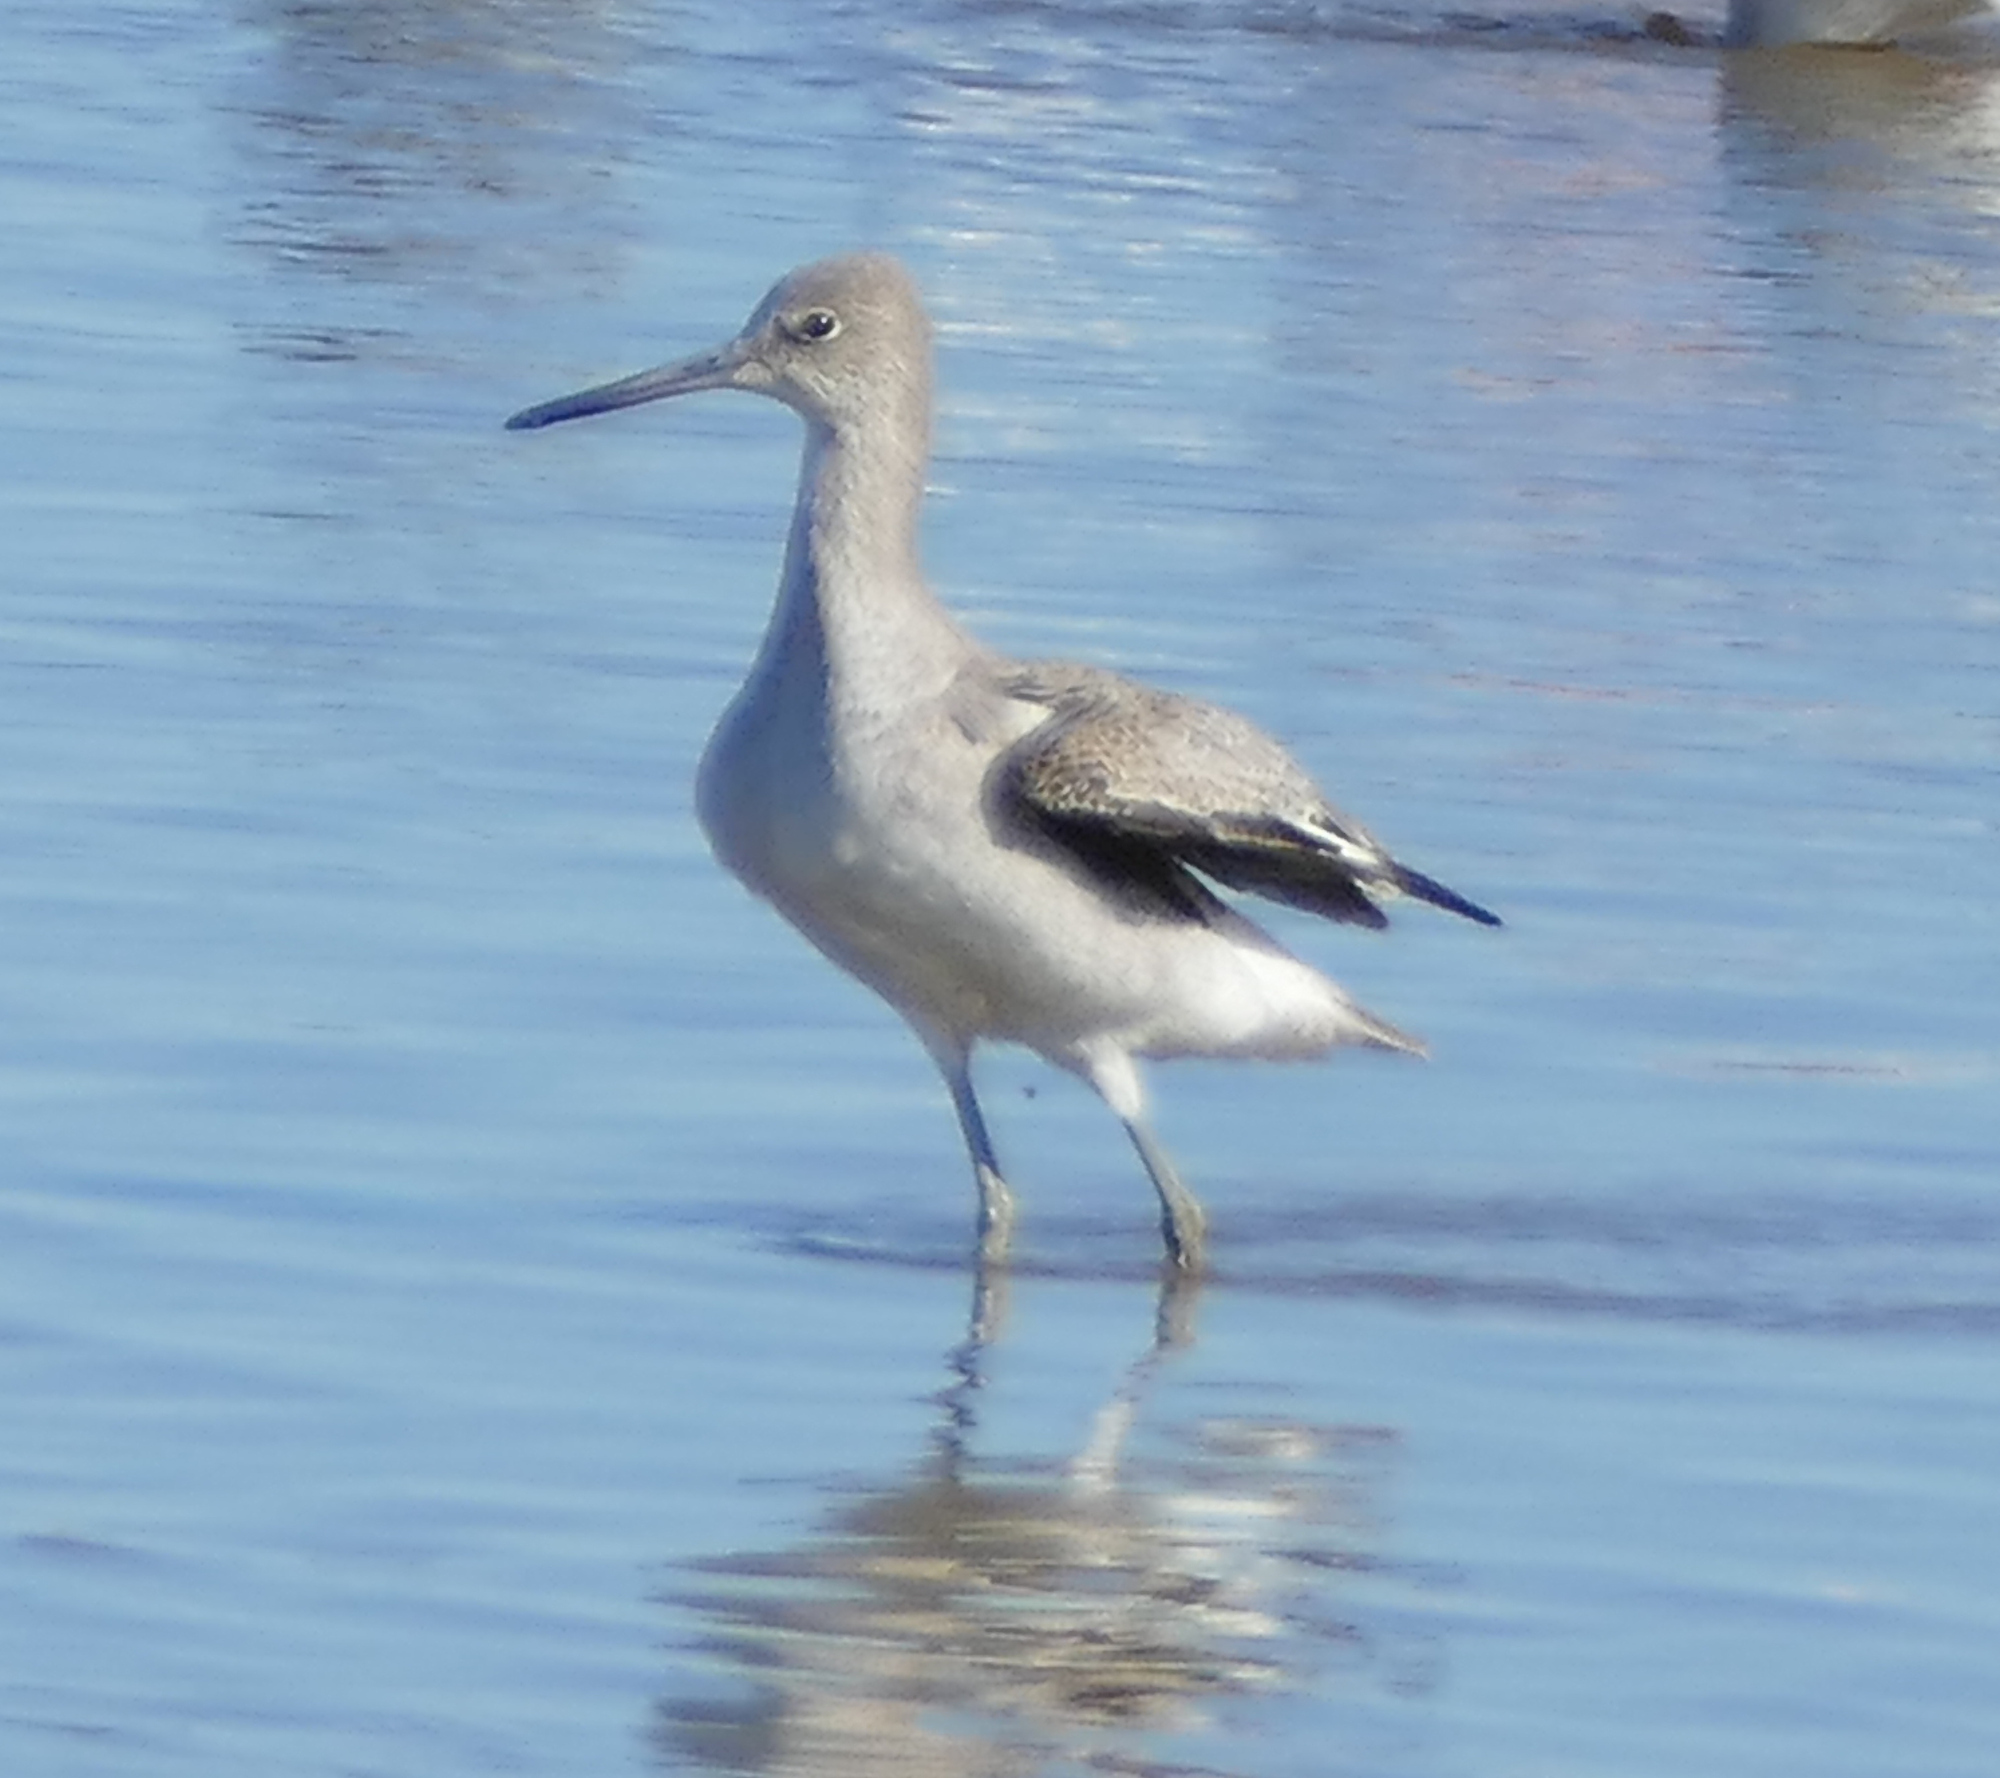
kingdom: Animalia
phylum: Chordata
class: Aves
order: Charadriiformes
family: Scolopacidae
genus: Tringa
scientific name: Tringa semipalmata
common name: Willet
